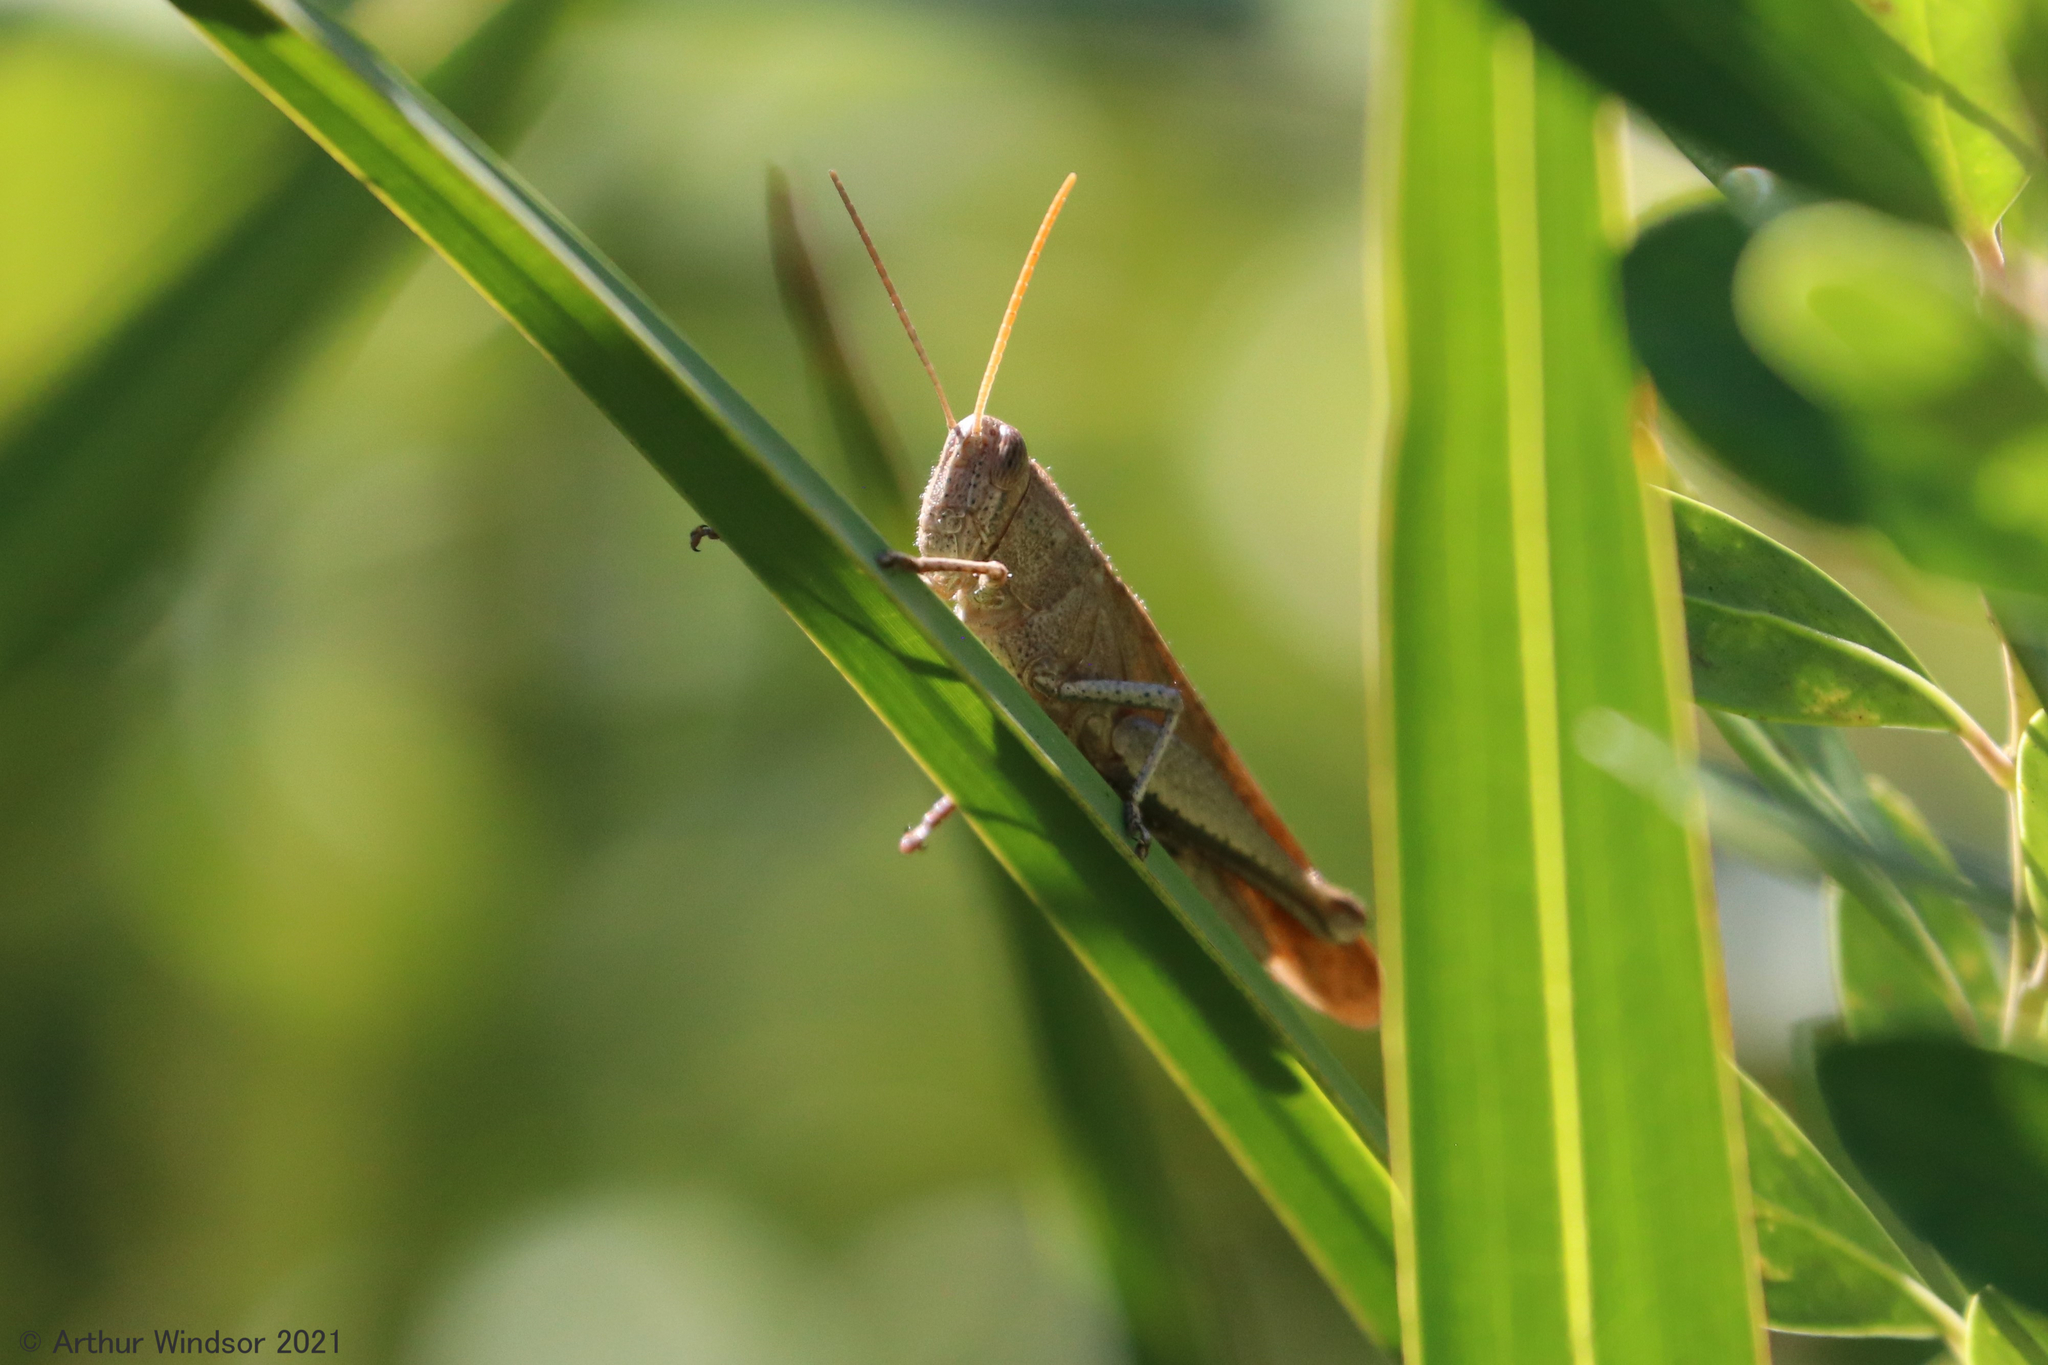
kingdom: Animalia
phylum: Arthropoda
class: Insecta
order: Orthoptera
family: Acrididae
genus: Schistocerca
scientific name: Schistocerca damnifica
